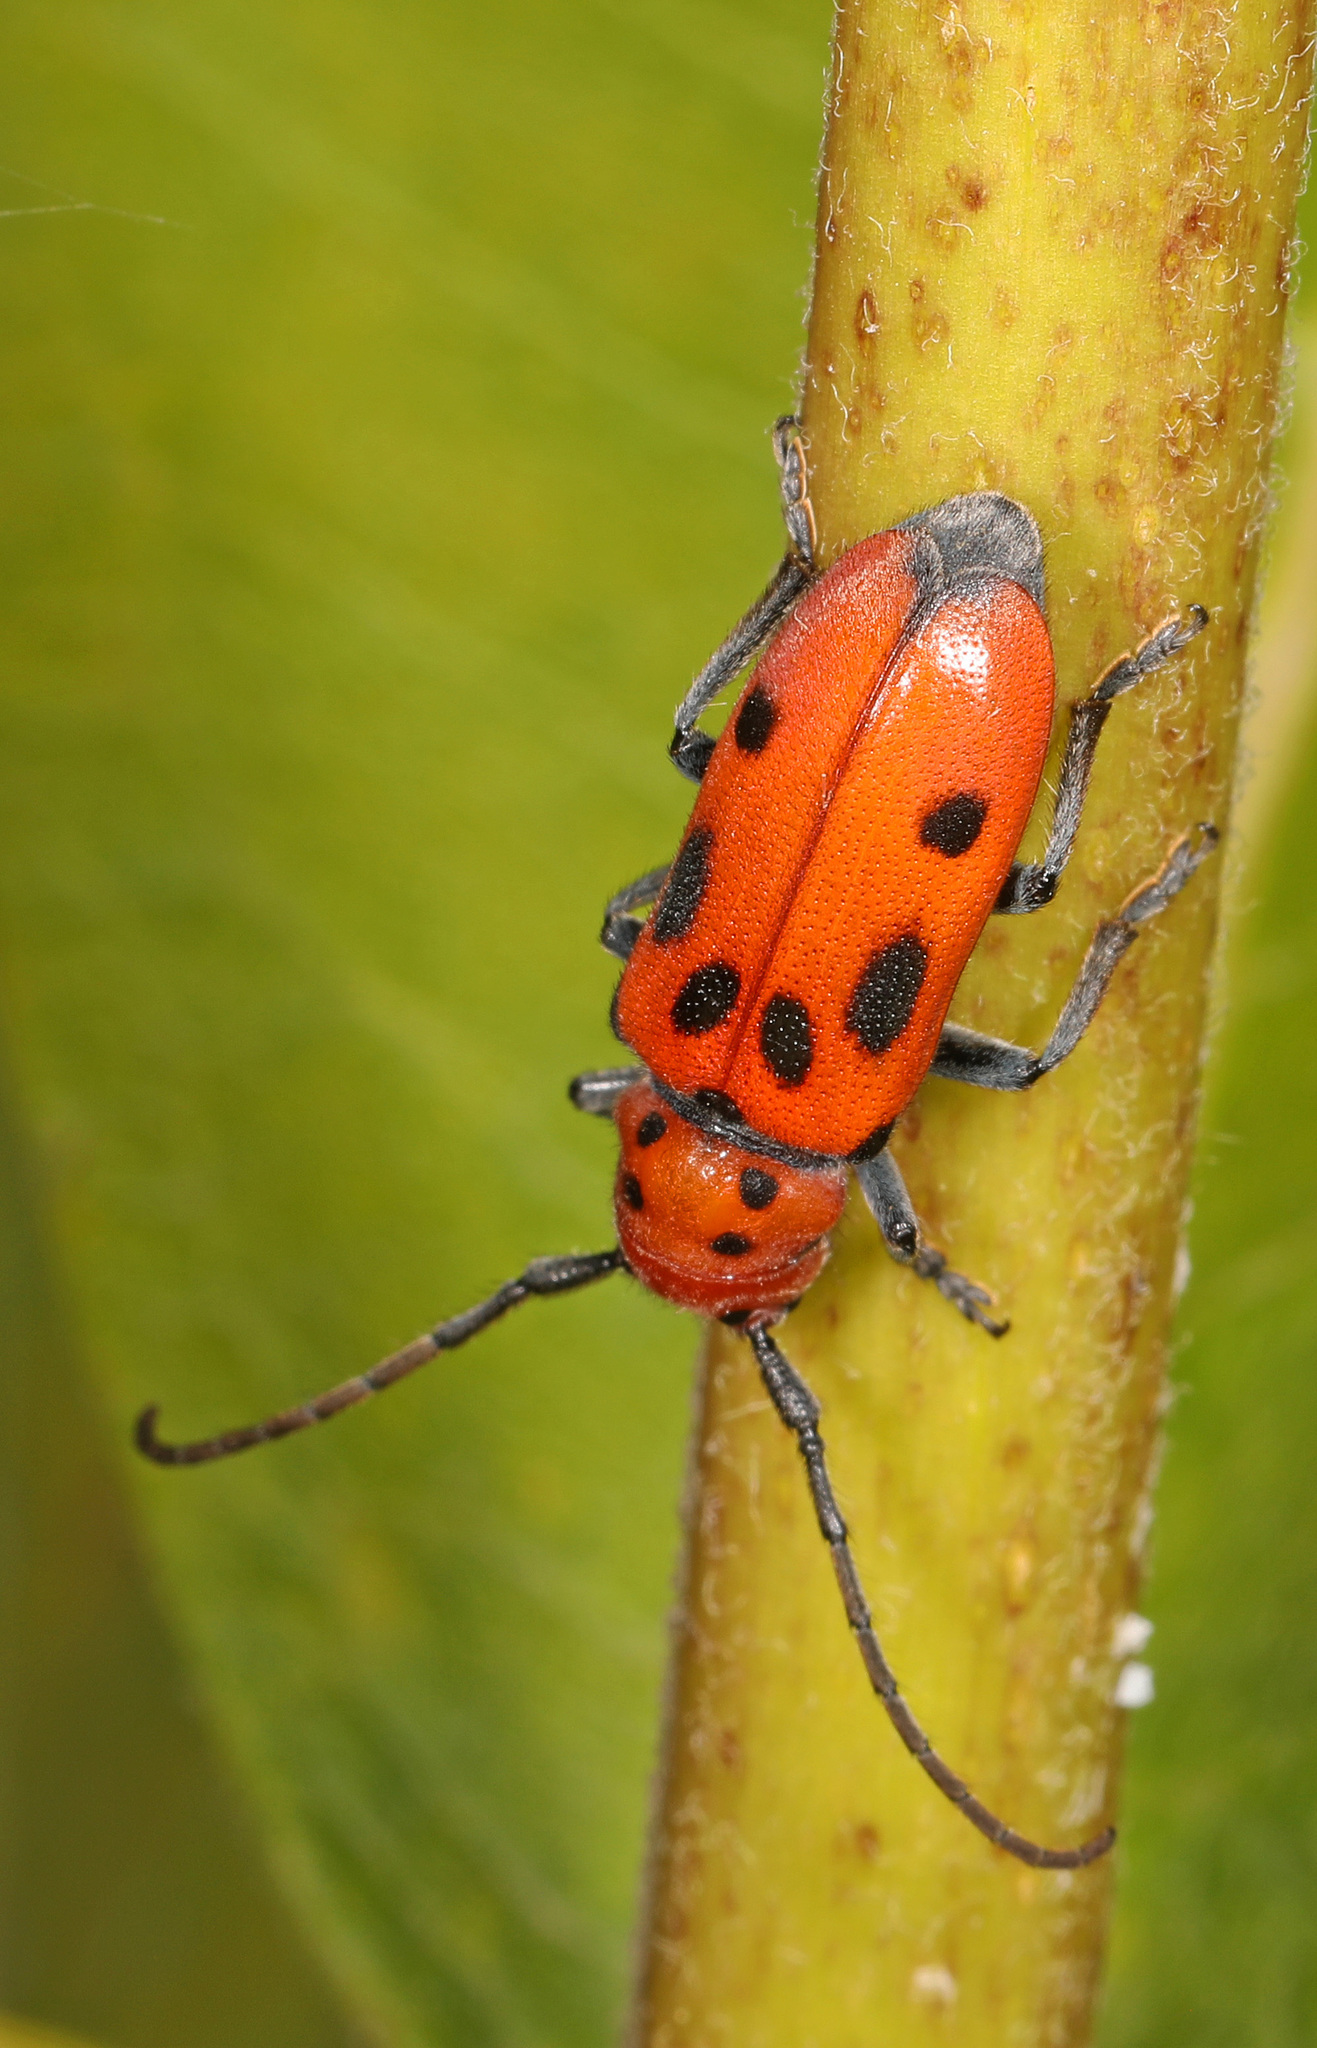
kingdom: Animalia
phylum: Arthropoda
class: Insecta
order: Coleoptera
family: Cerambycidae
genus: Tetraopes
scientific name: Tetraopes tetrophthalmus
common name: Red milkweed beetle
